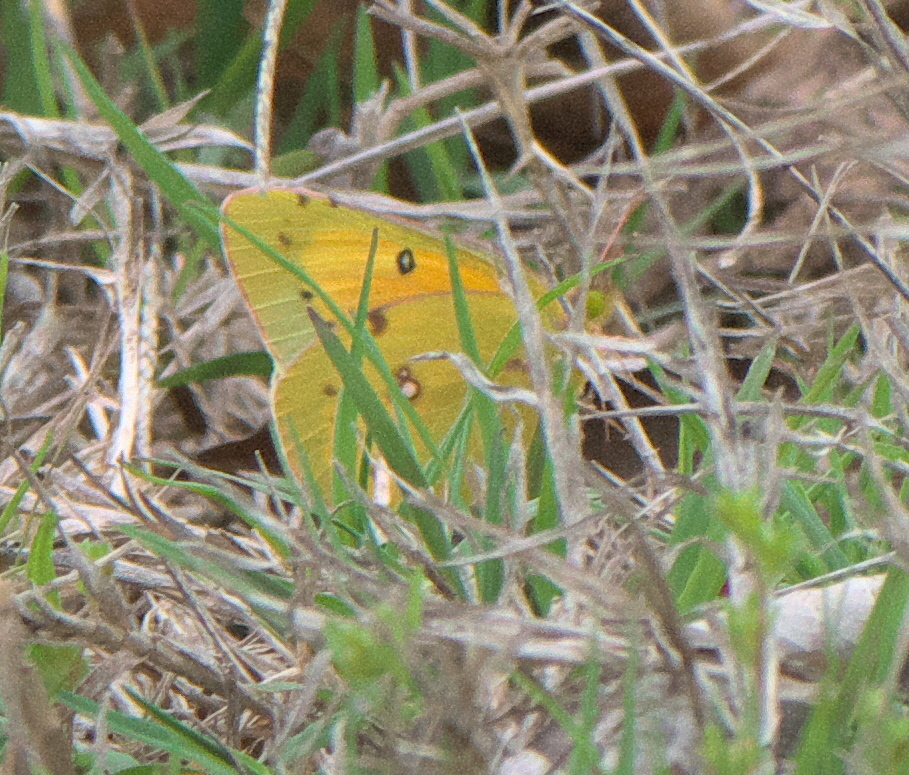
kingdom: Animalia
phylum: Arthropoda
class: Insecta
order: Lepidoptera
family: Pieridae
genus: Colias
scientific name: Colias eurytheme
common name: Alfalfa butterfly
